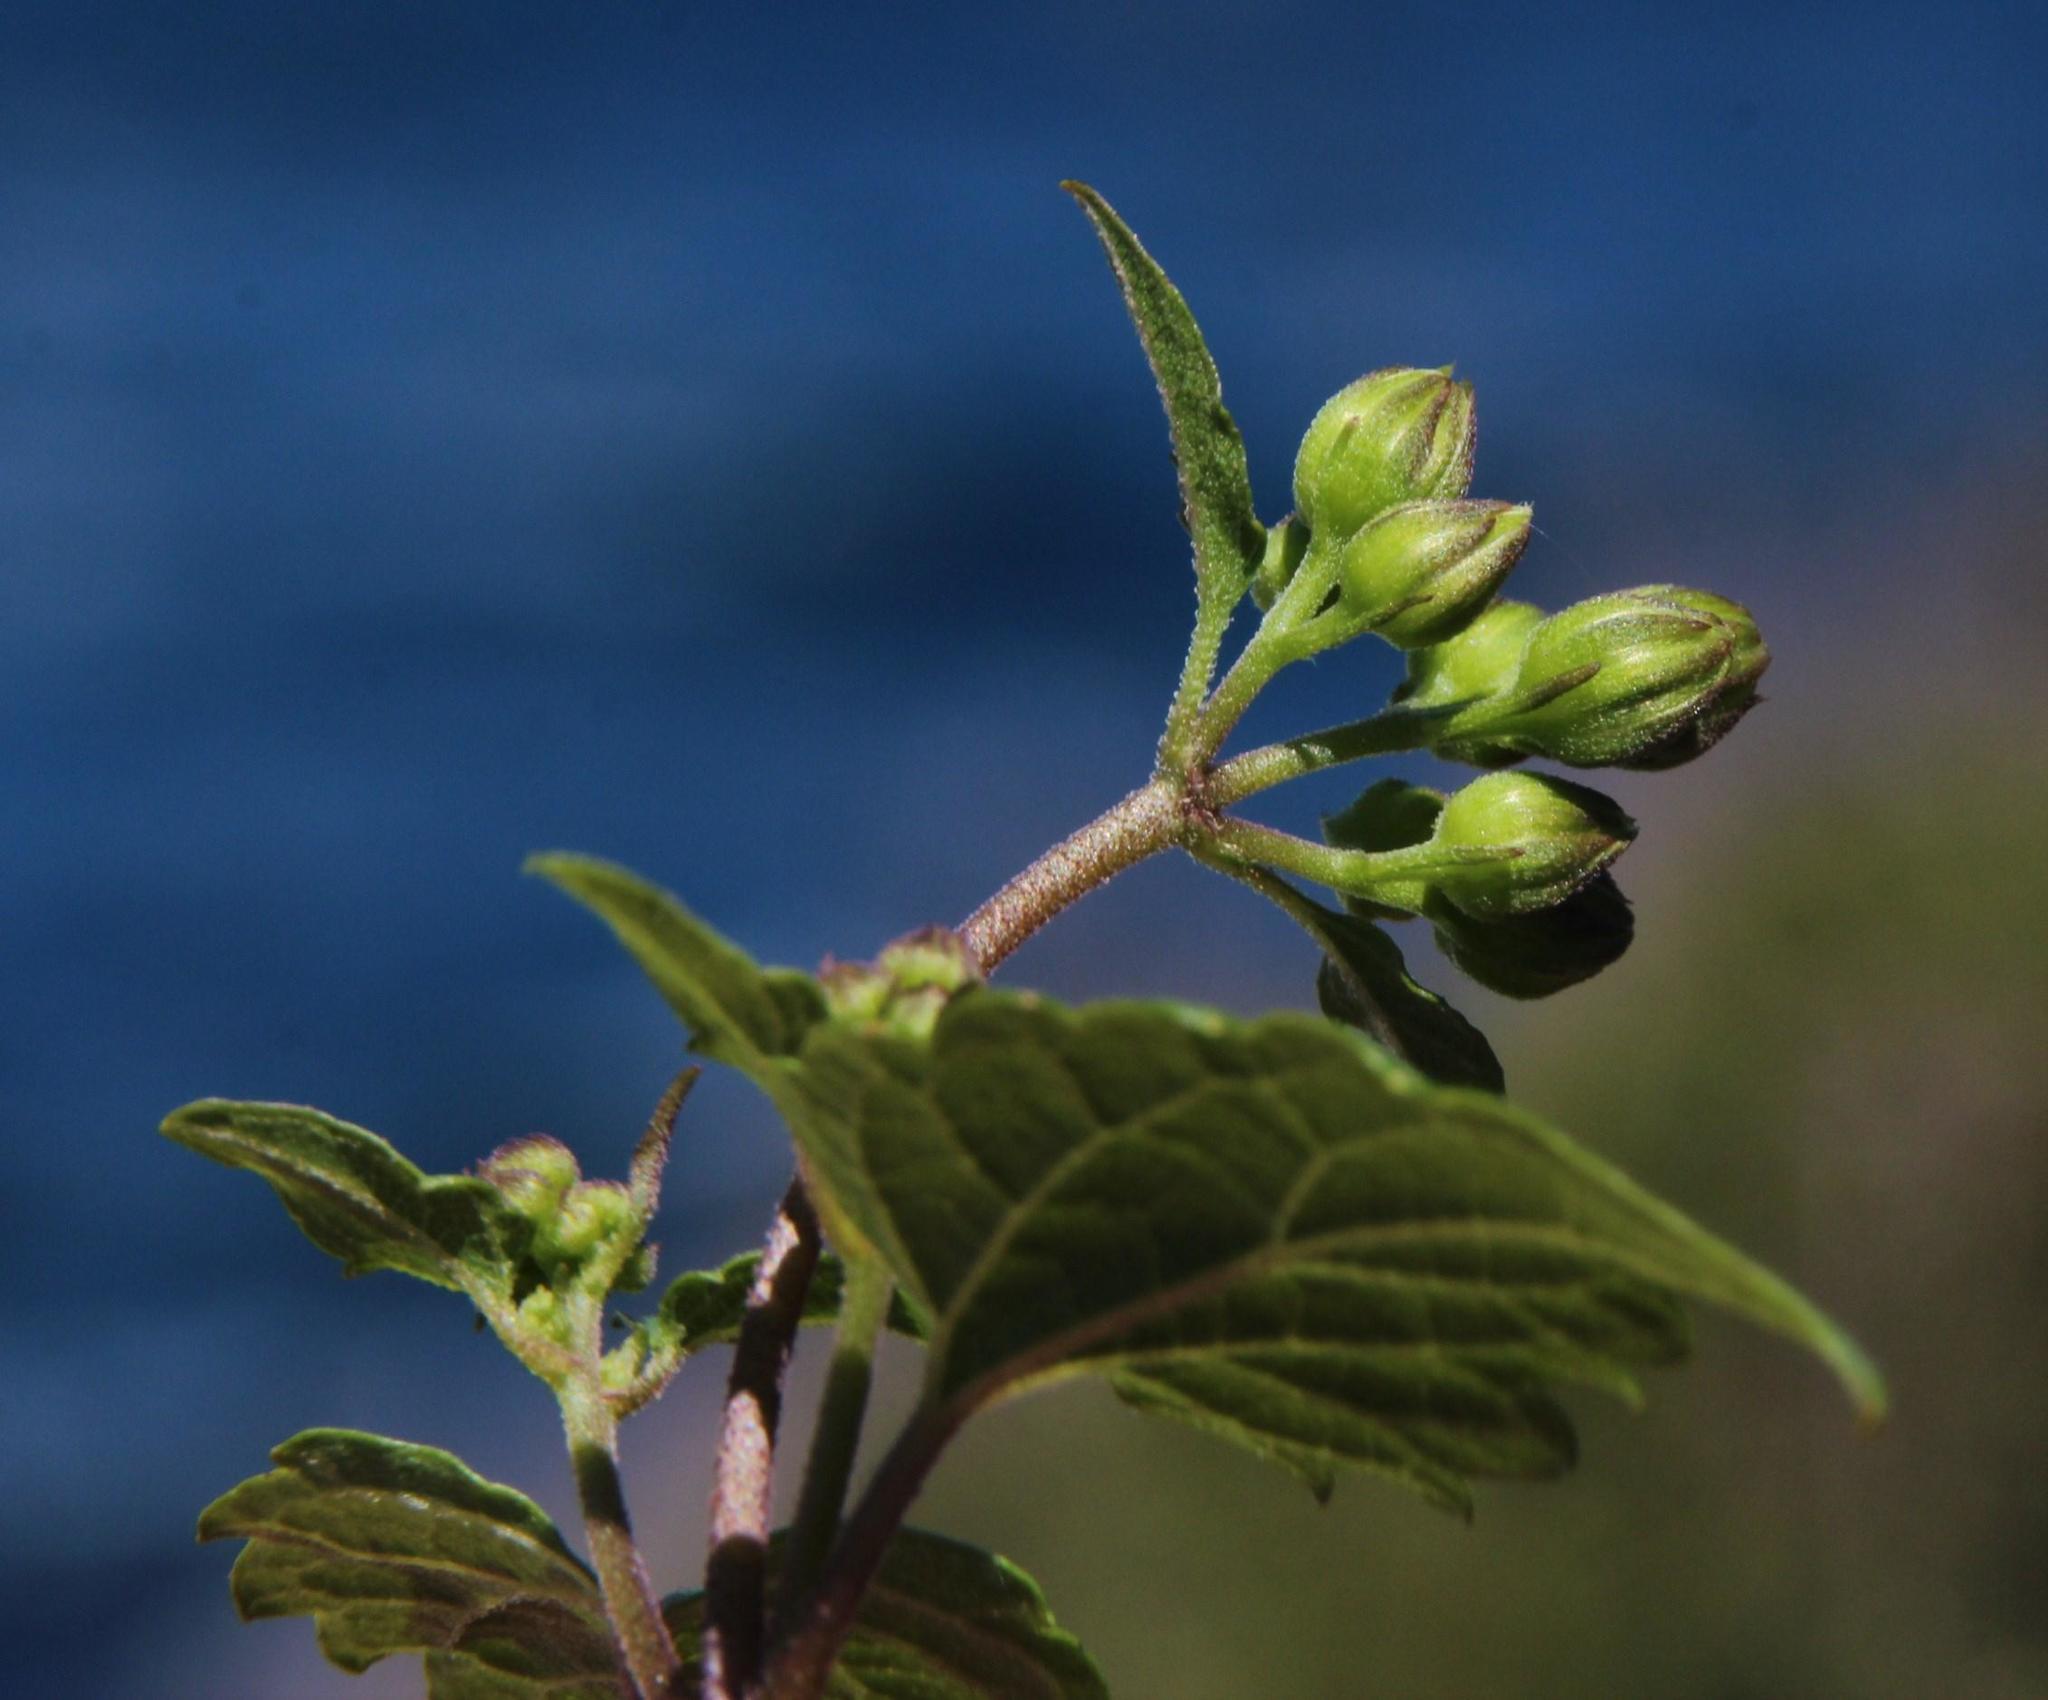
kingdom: Plantae
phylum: Tracheophyta
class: Magnoliopsida
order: Asterales
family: Asteraceae
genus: Ageratina
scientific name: Ageratina glechonophylla
